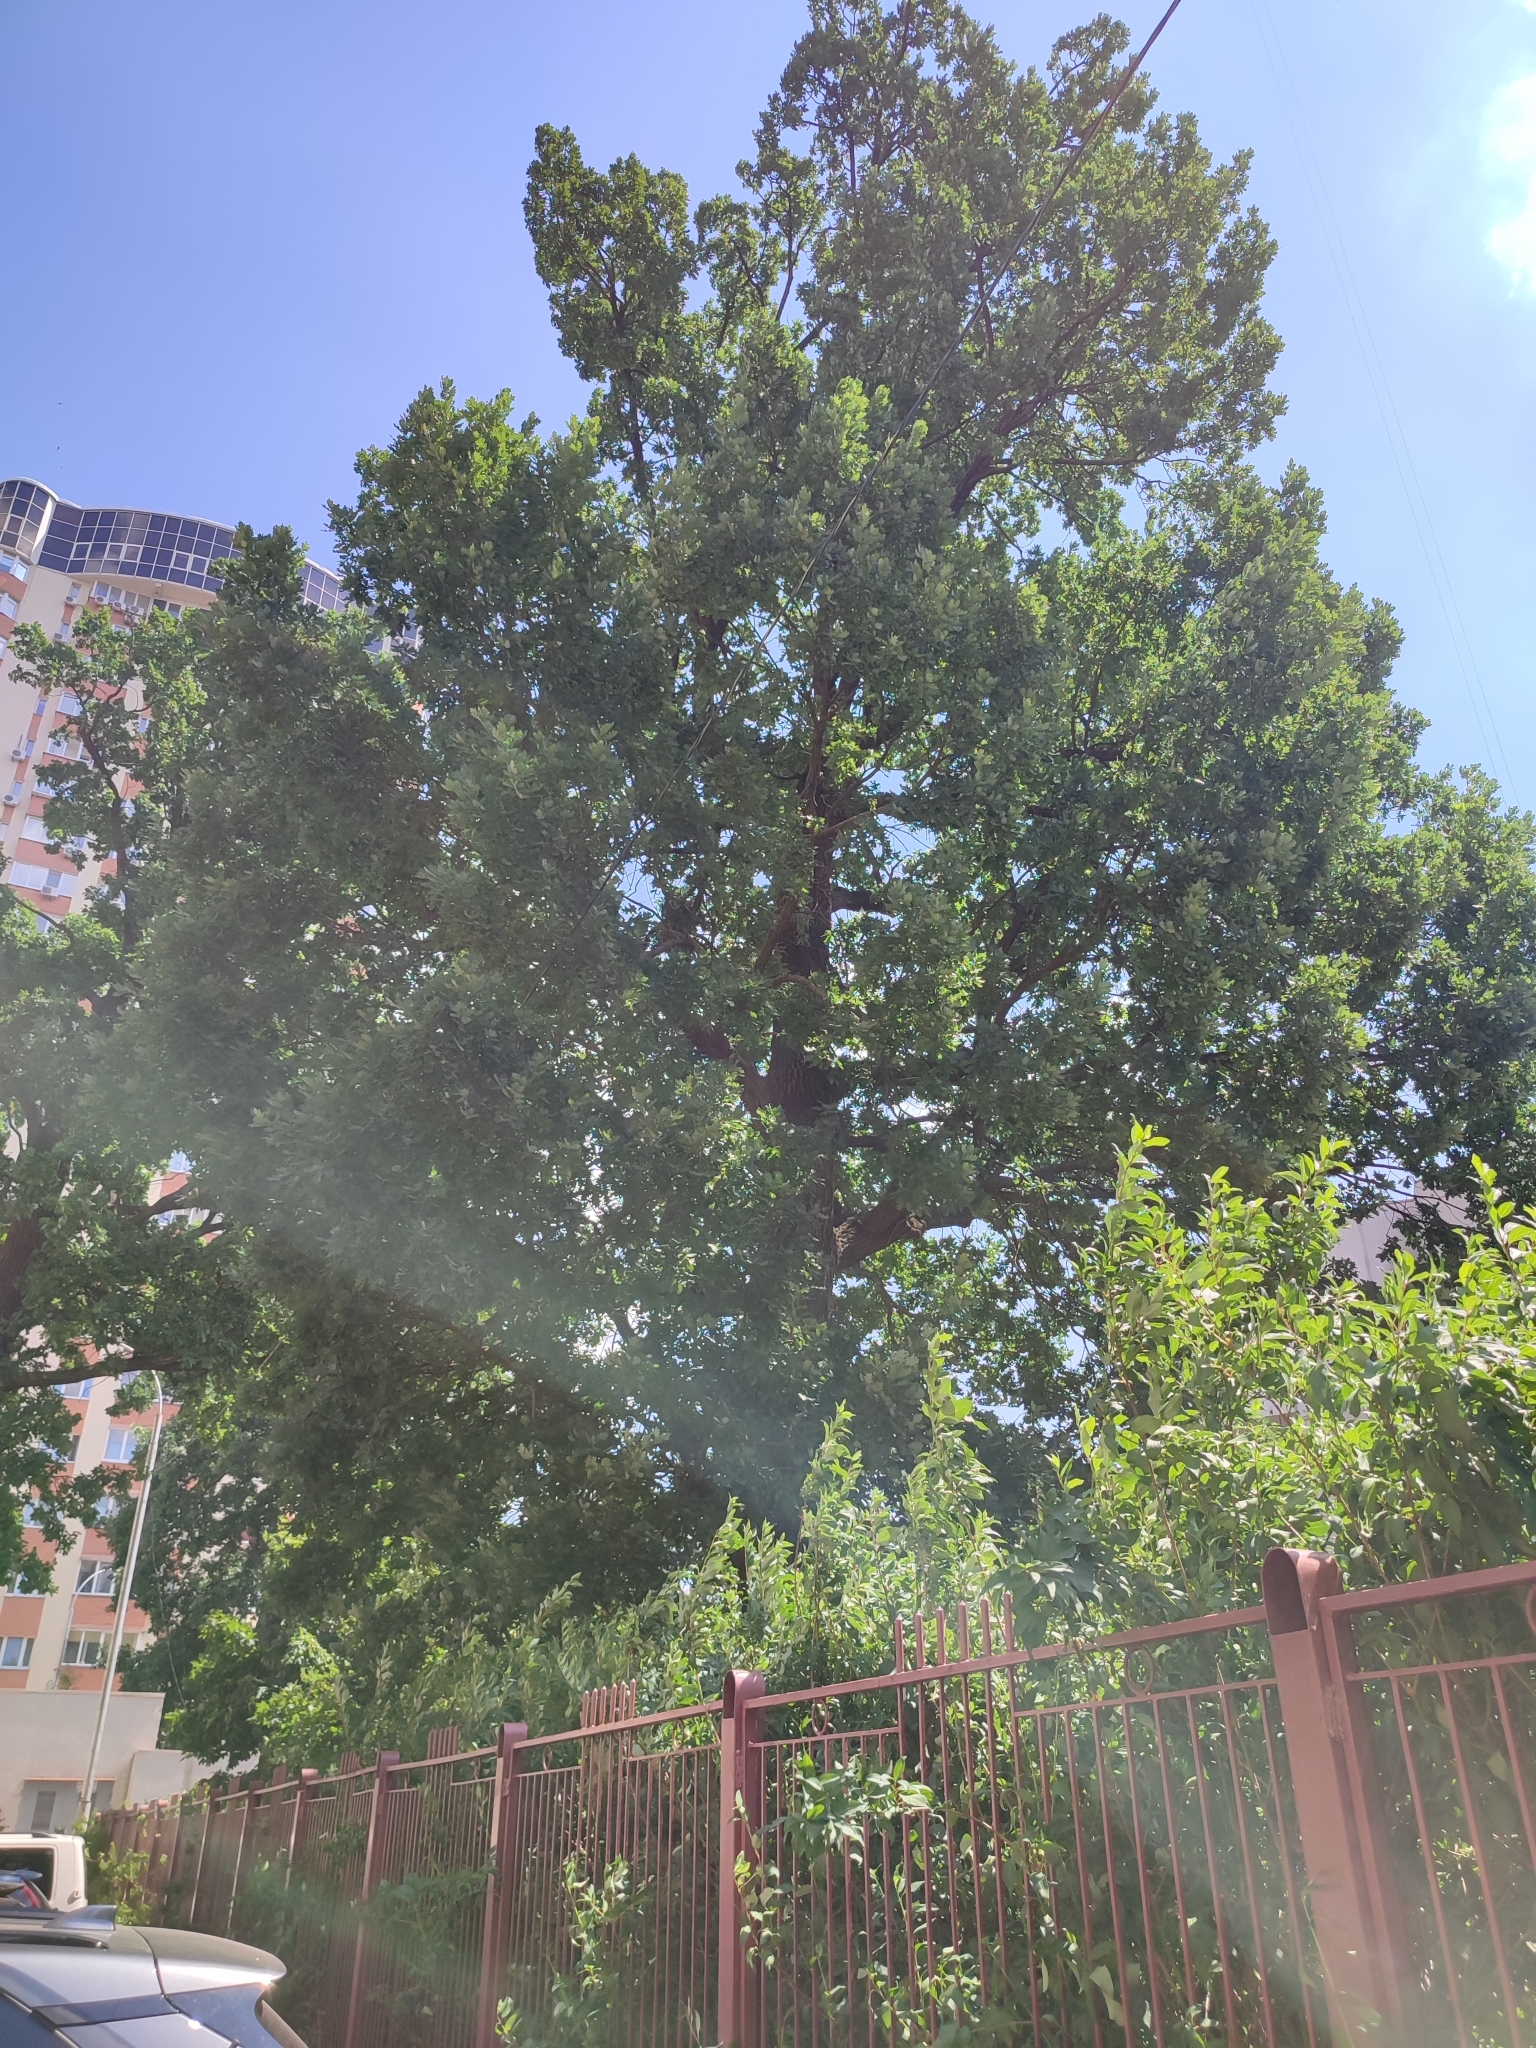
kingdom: Plantae
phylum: Tracheophyta
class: Magnoliopsida
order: Fagales
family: Fagaceae
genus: Quercus
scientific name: Quercus robur
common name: Pedunculate oak
